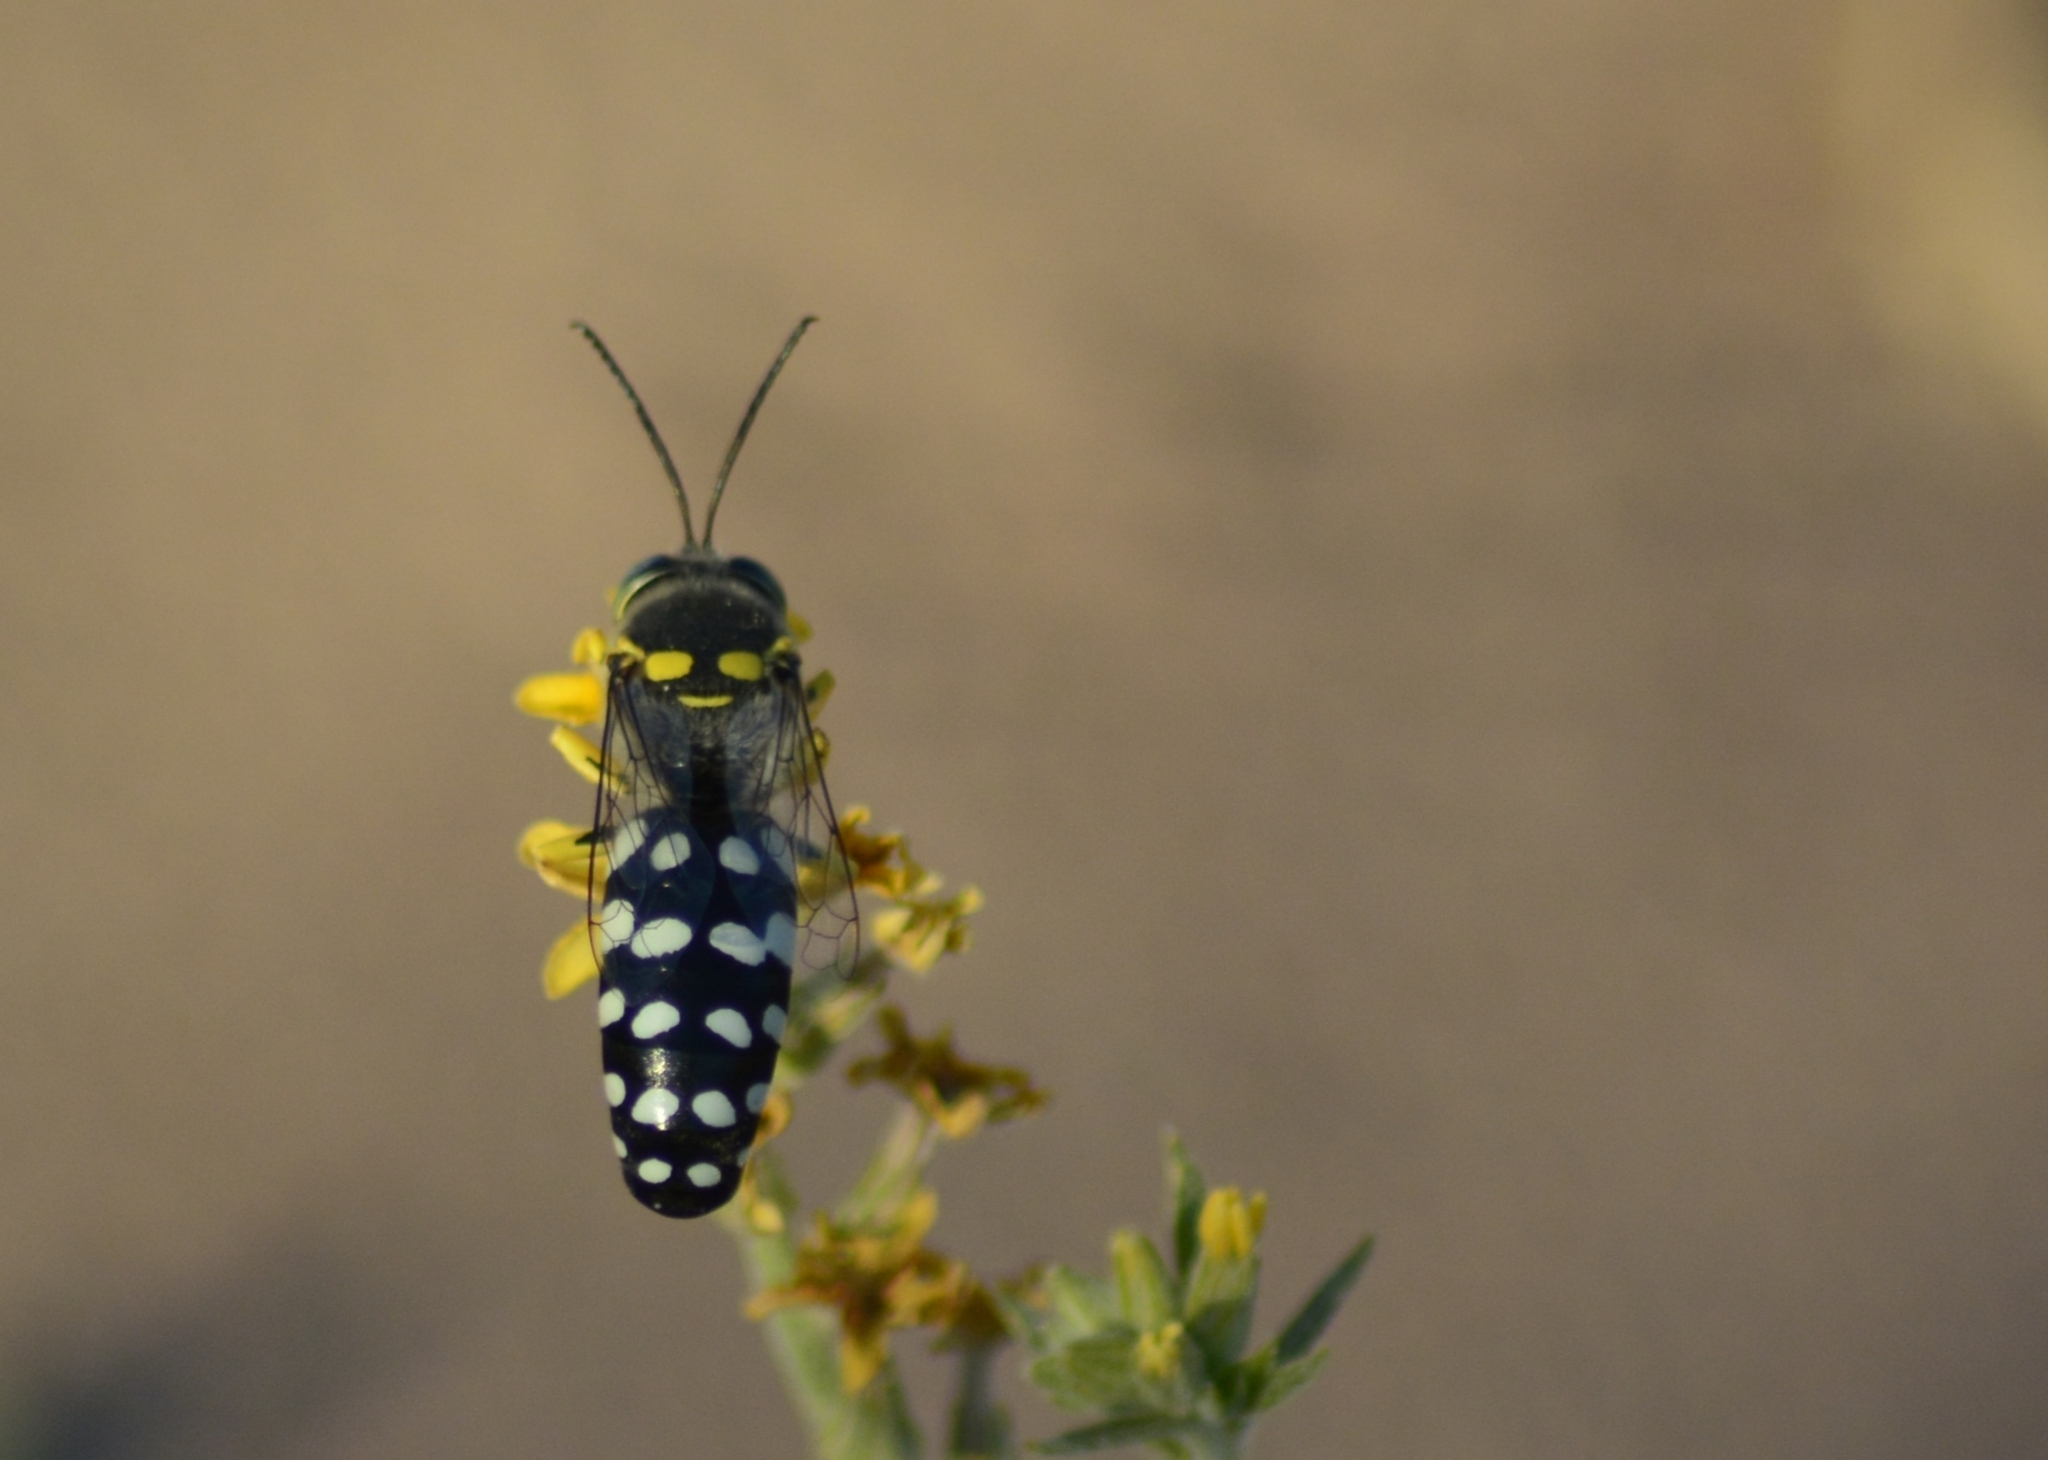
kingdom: Animalia
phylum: Arthropoda
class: Insecta
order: Hymenoptera
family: Crabronidae
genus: Zyzzyx
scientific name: Zyzzyx chilensis
